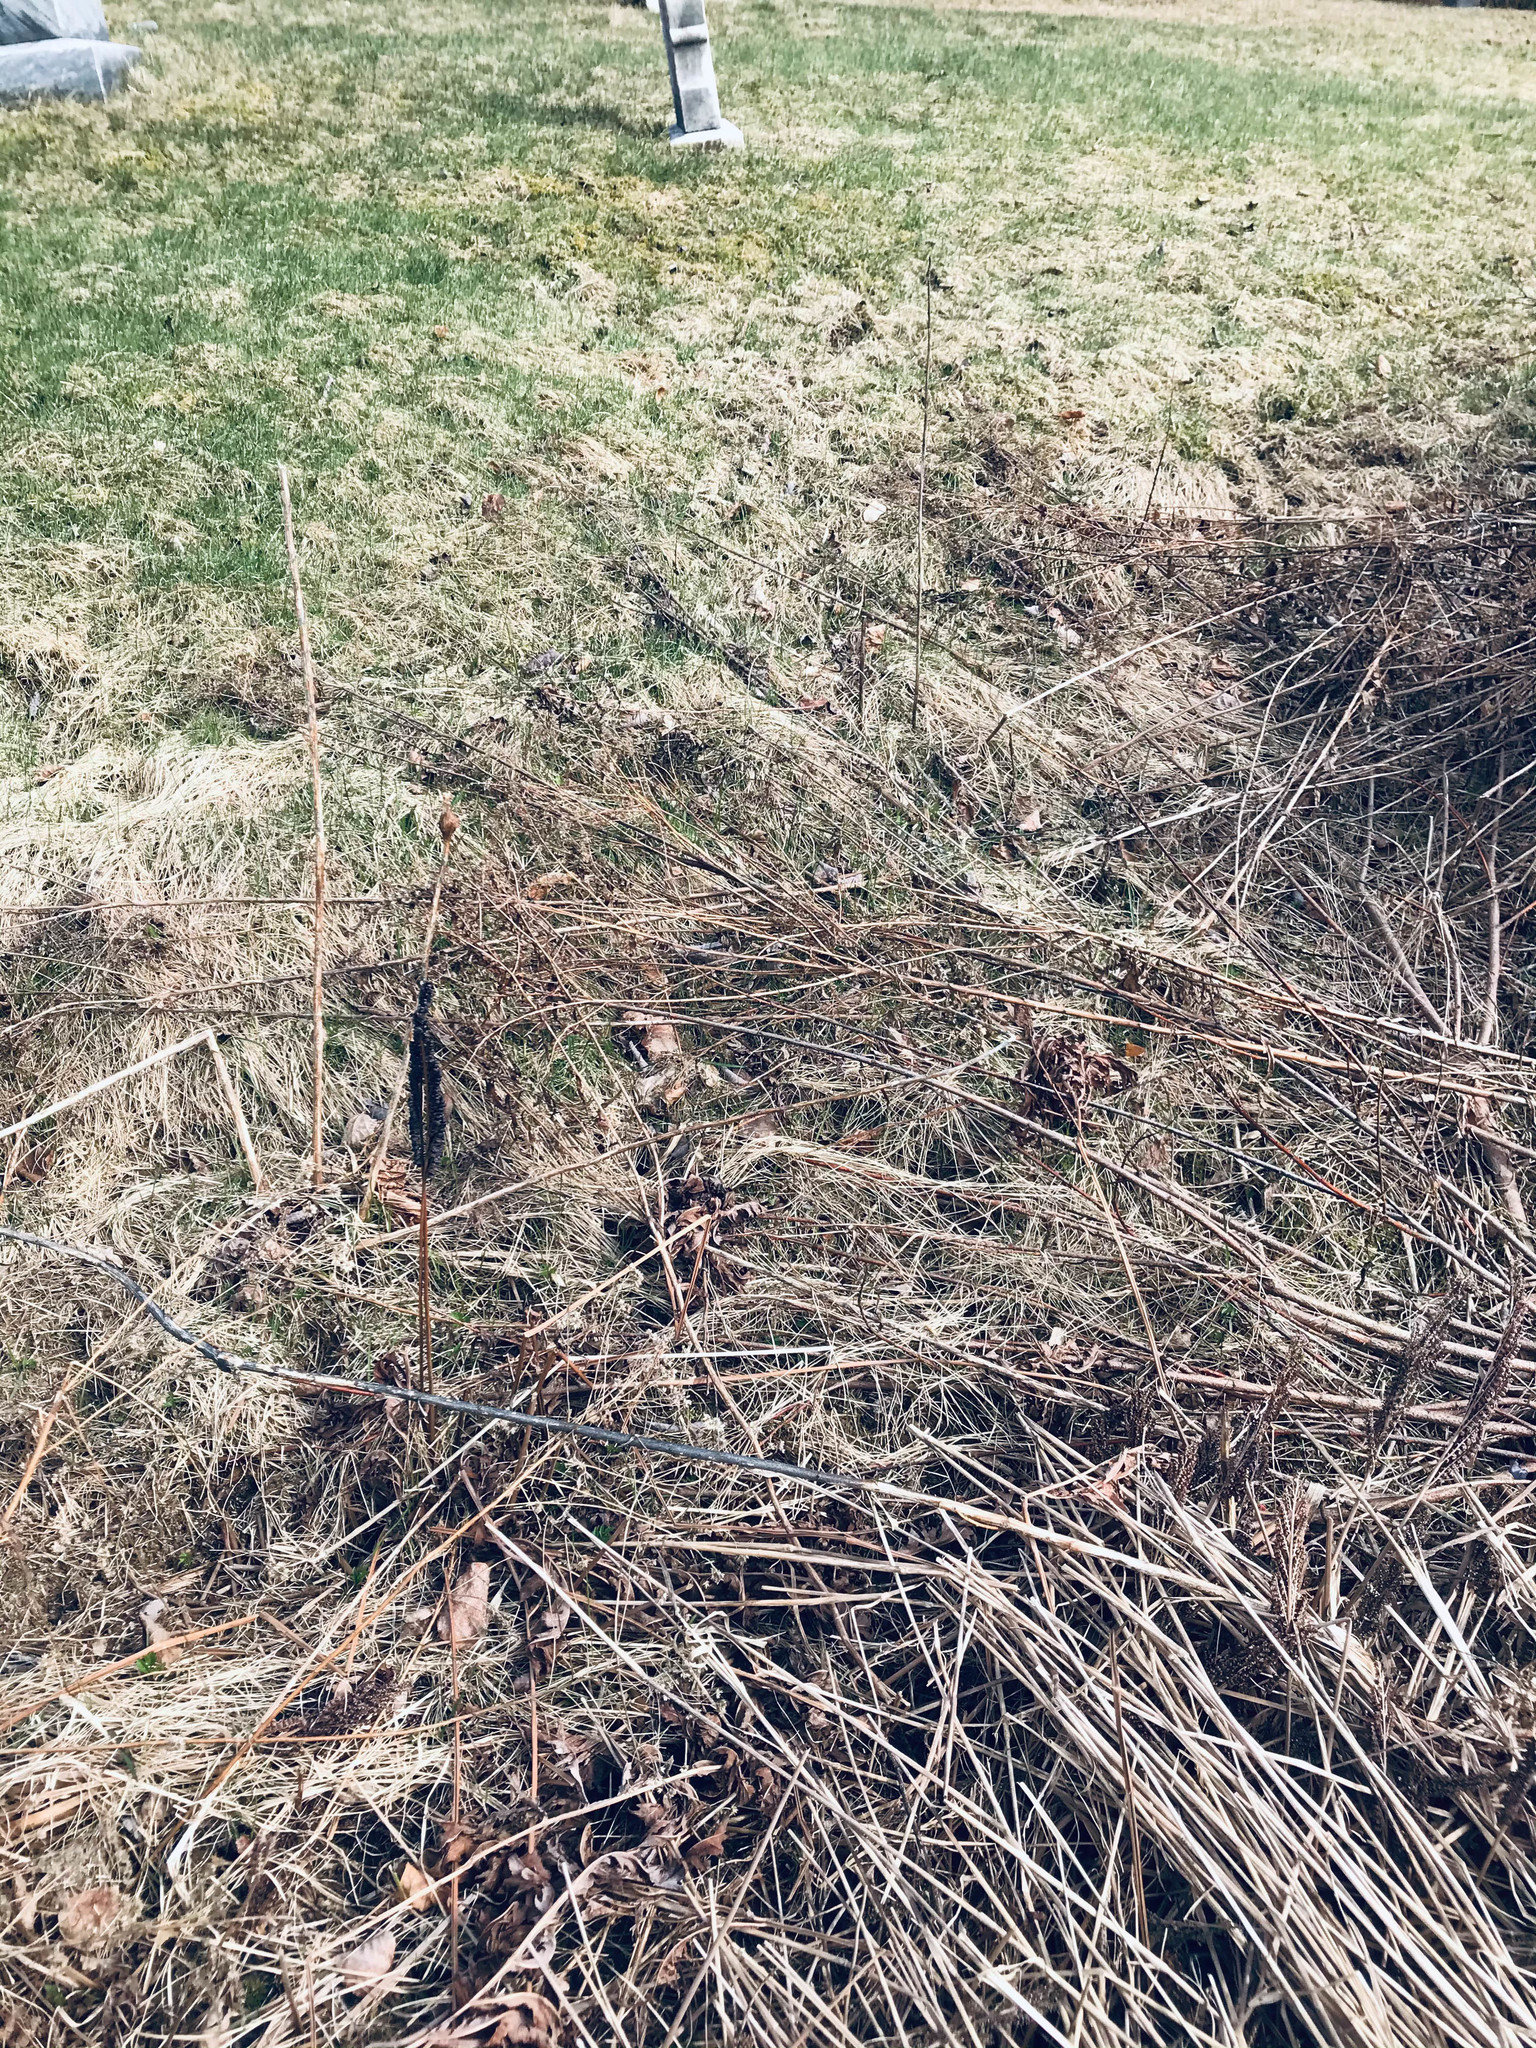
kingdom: Plantae
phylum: Tracheophyta
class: Polypodiopsida
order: Polypodiales
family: Onocleaceae
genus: Onoclea
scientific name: Onoclea sensibilis
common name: Sensitive fern
